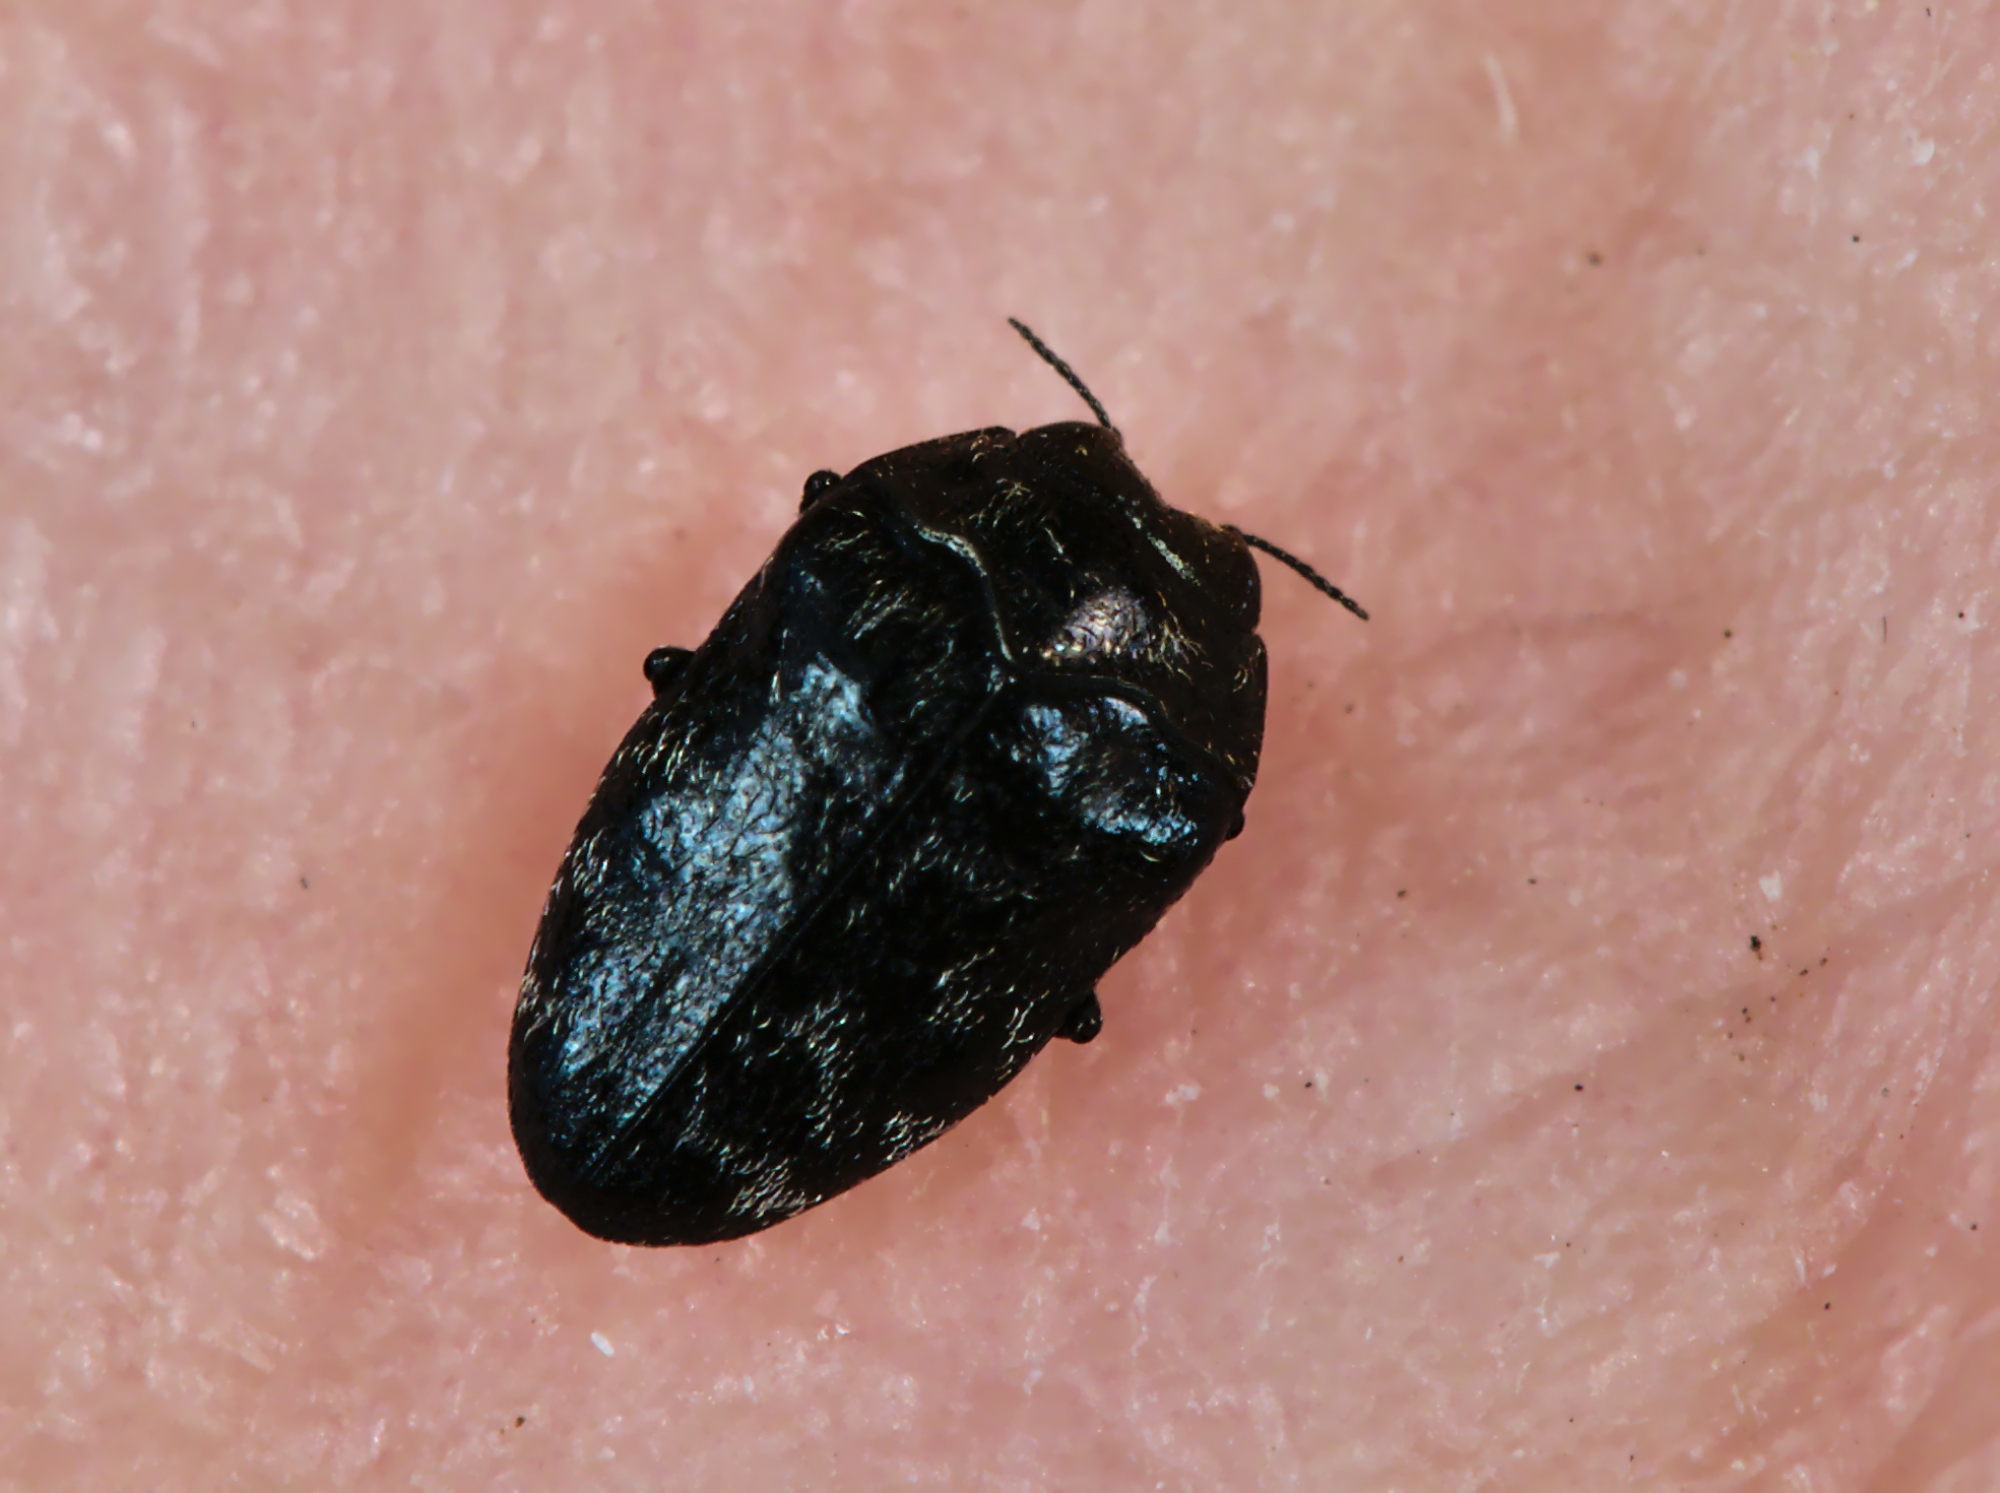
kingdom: Animalia
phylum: Arthropoda
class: Insecta
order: Coleoptera
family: Buprestidae
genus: Trachys
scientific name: Trachys minutus
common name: Metallic wood-boring beetle
